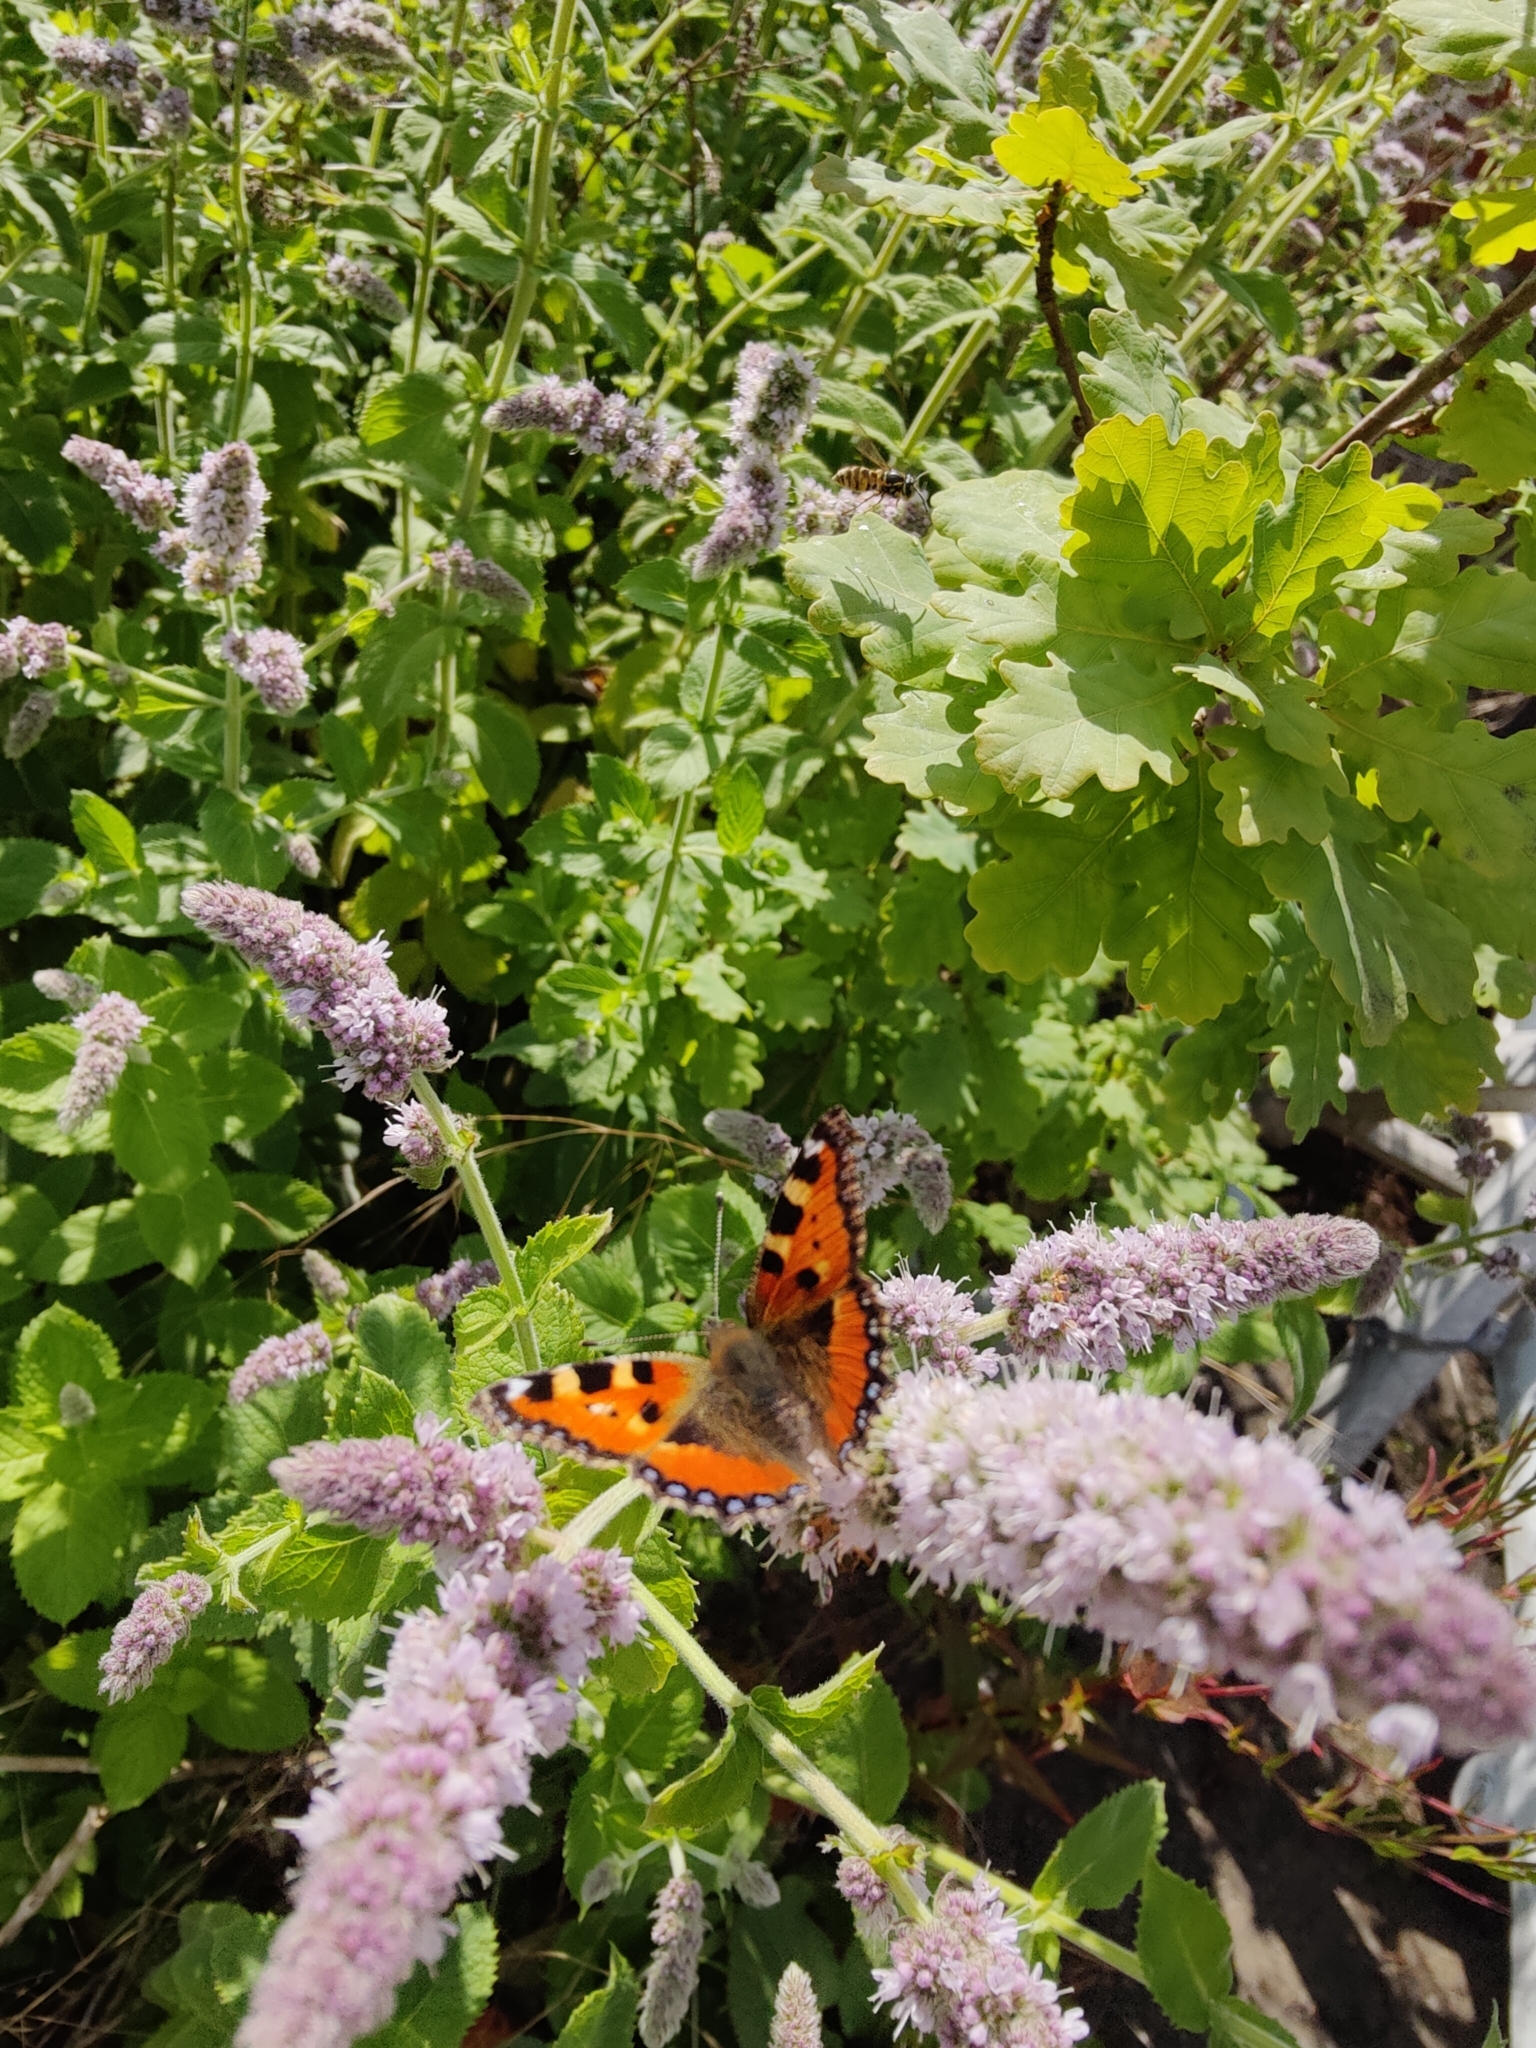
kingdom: Animalia
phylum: Arthropoda
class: Insecta
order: Lepidoptera
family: Nymphalidae
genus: Aglais
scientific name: Aglais urticae
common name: Small tortoiseshell
